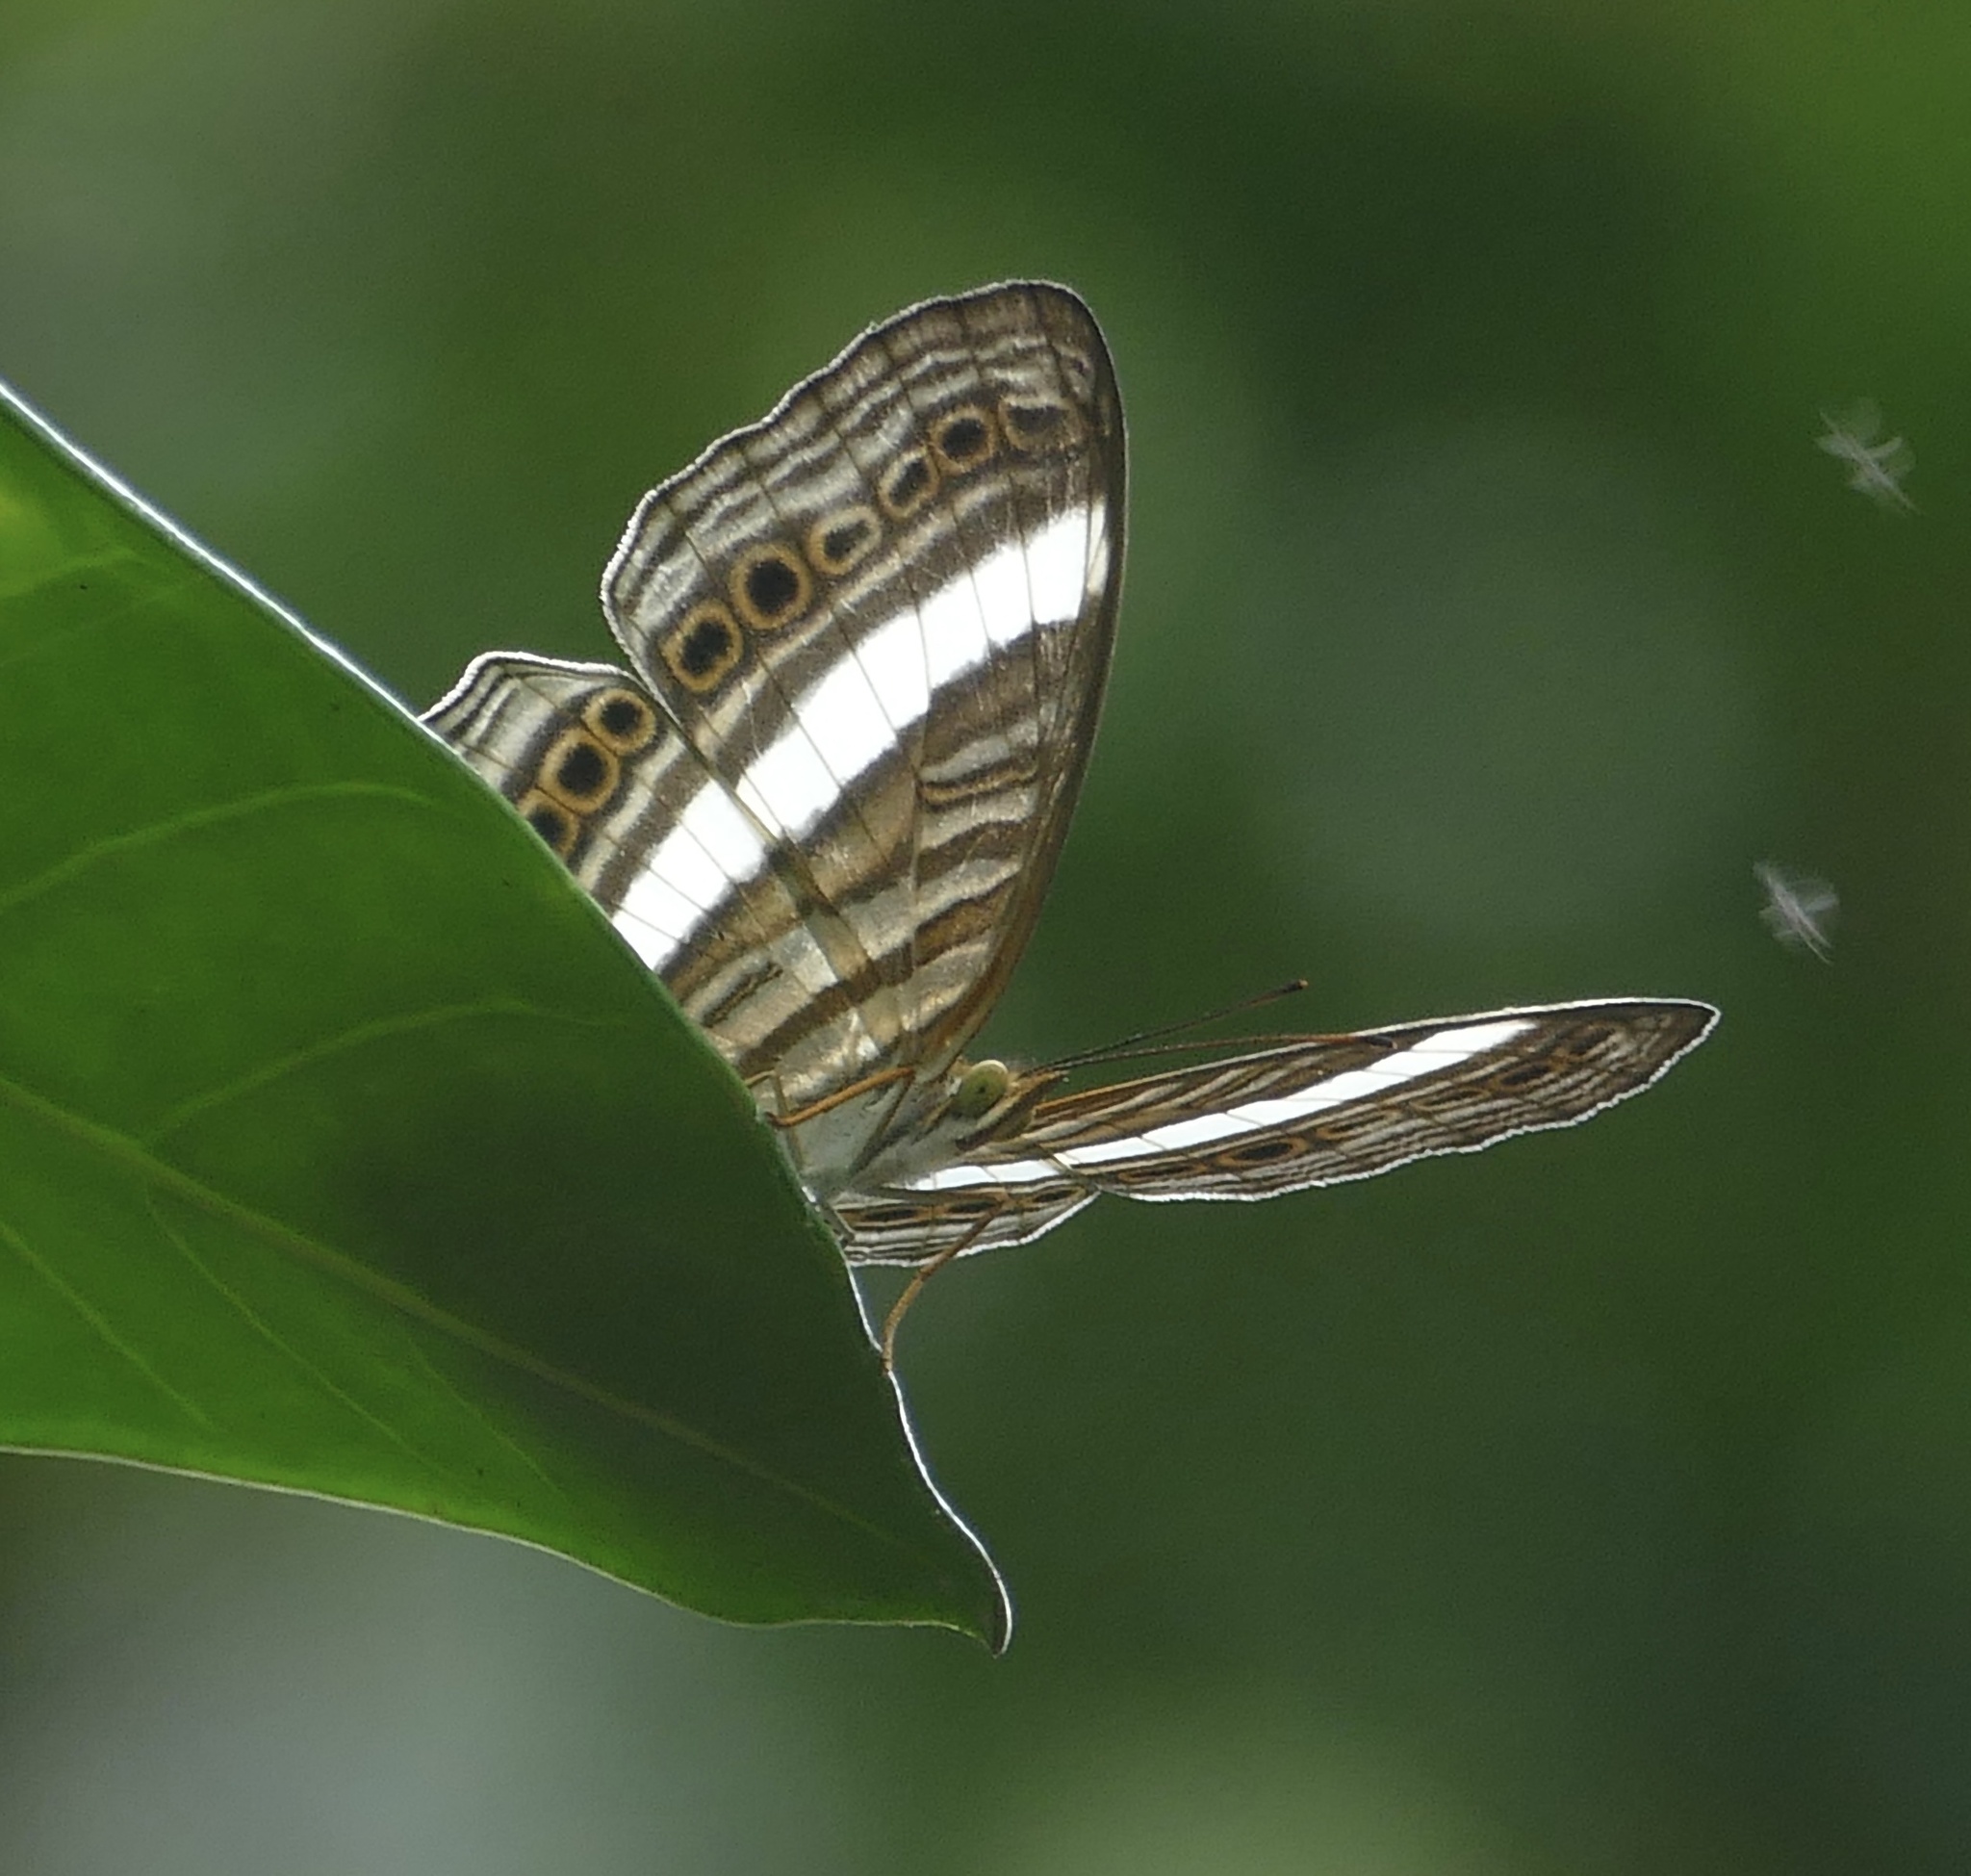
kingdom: Animalia
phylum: Arthropoda
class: Insecta
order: Lepidoptera
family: Nymphalidae
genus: Cyrestis
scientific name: Cyrestis strigata
